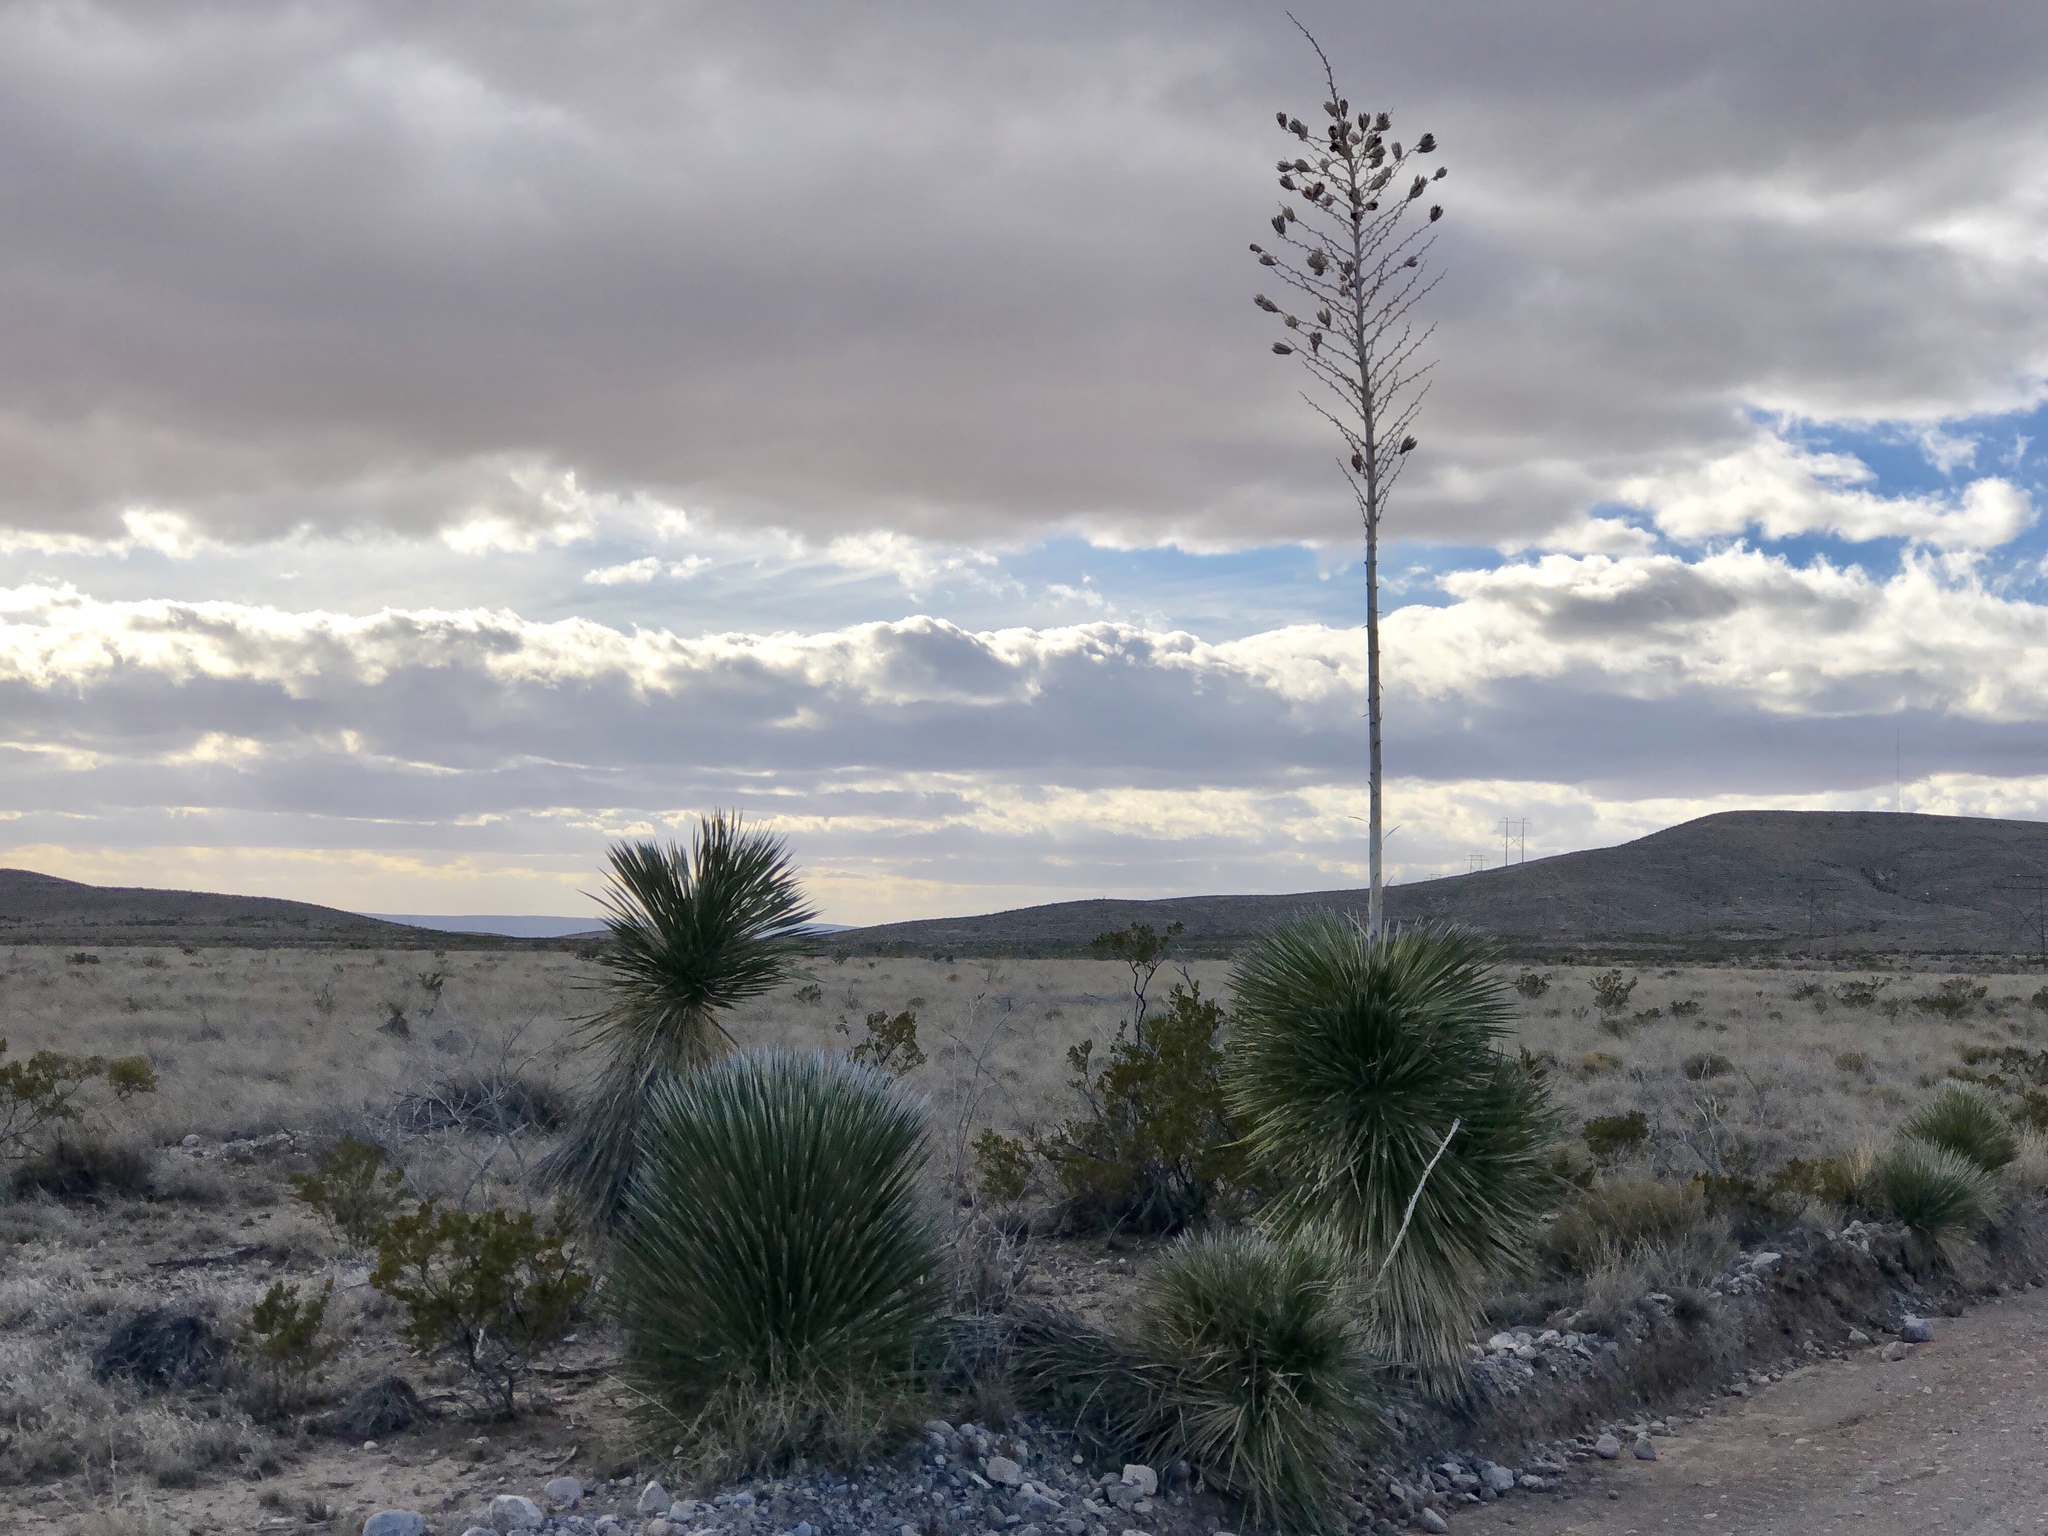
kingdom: Plantae
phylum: Tracheophyta
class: Liliopsida
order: Asparagales
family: Asparagaceae
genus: Yucca
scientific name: Yucca elata
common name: Palmella
